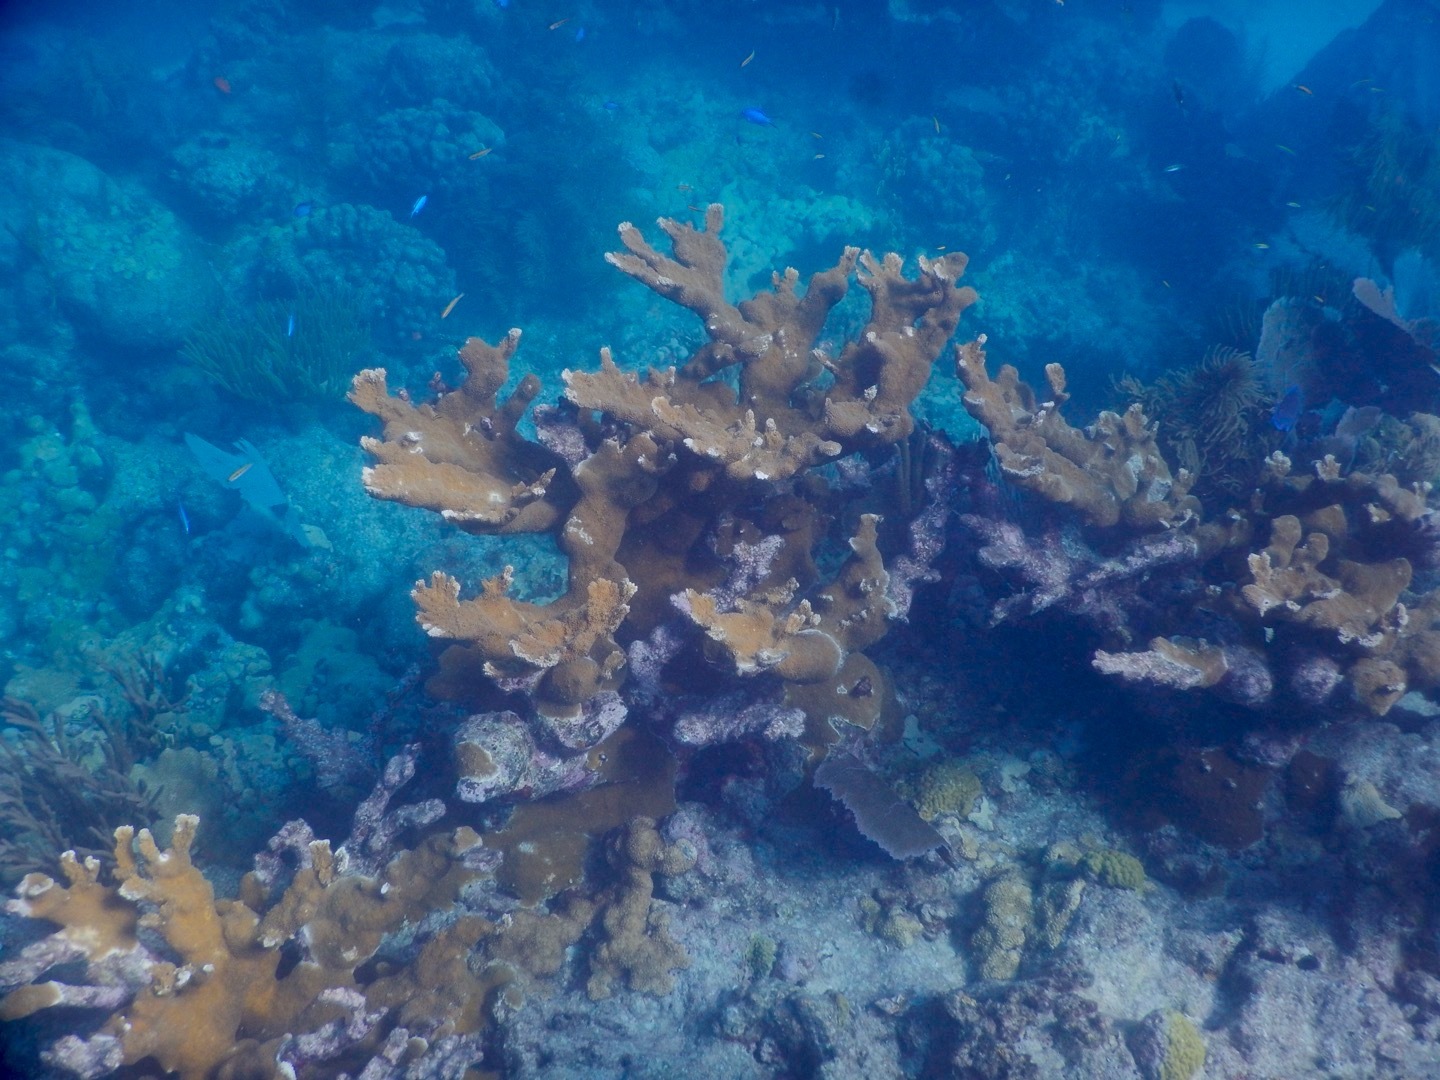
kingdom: Animalia
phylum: Cnidaria
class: Anthozoa
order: Scleractinia
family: Acroporidae
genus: Acropora
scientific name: Acropora palmata
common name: Elkhorn coral
